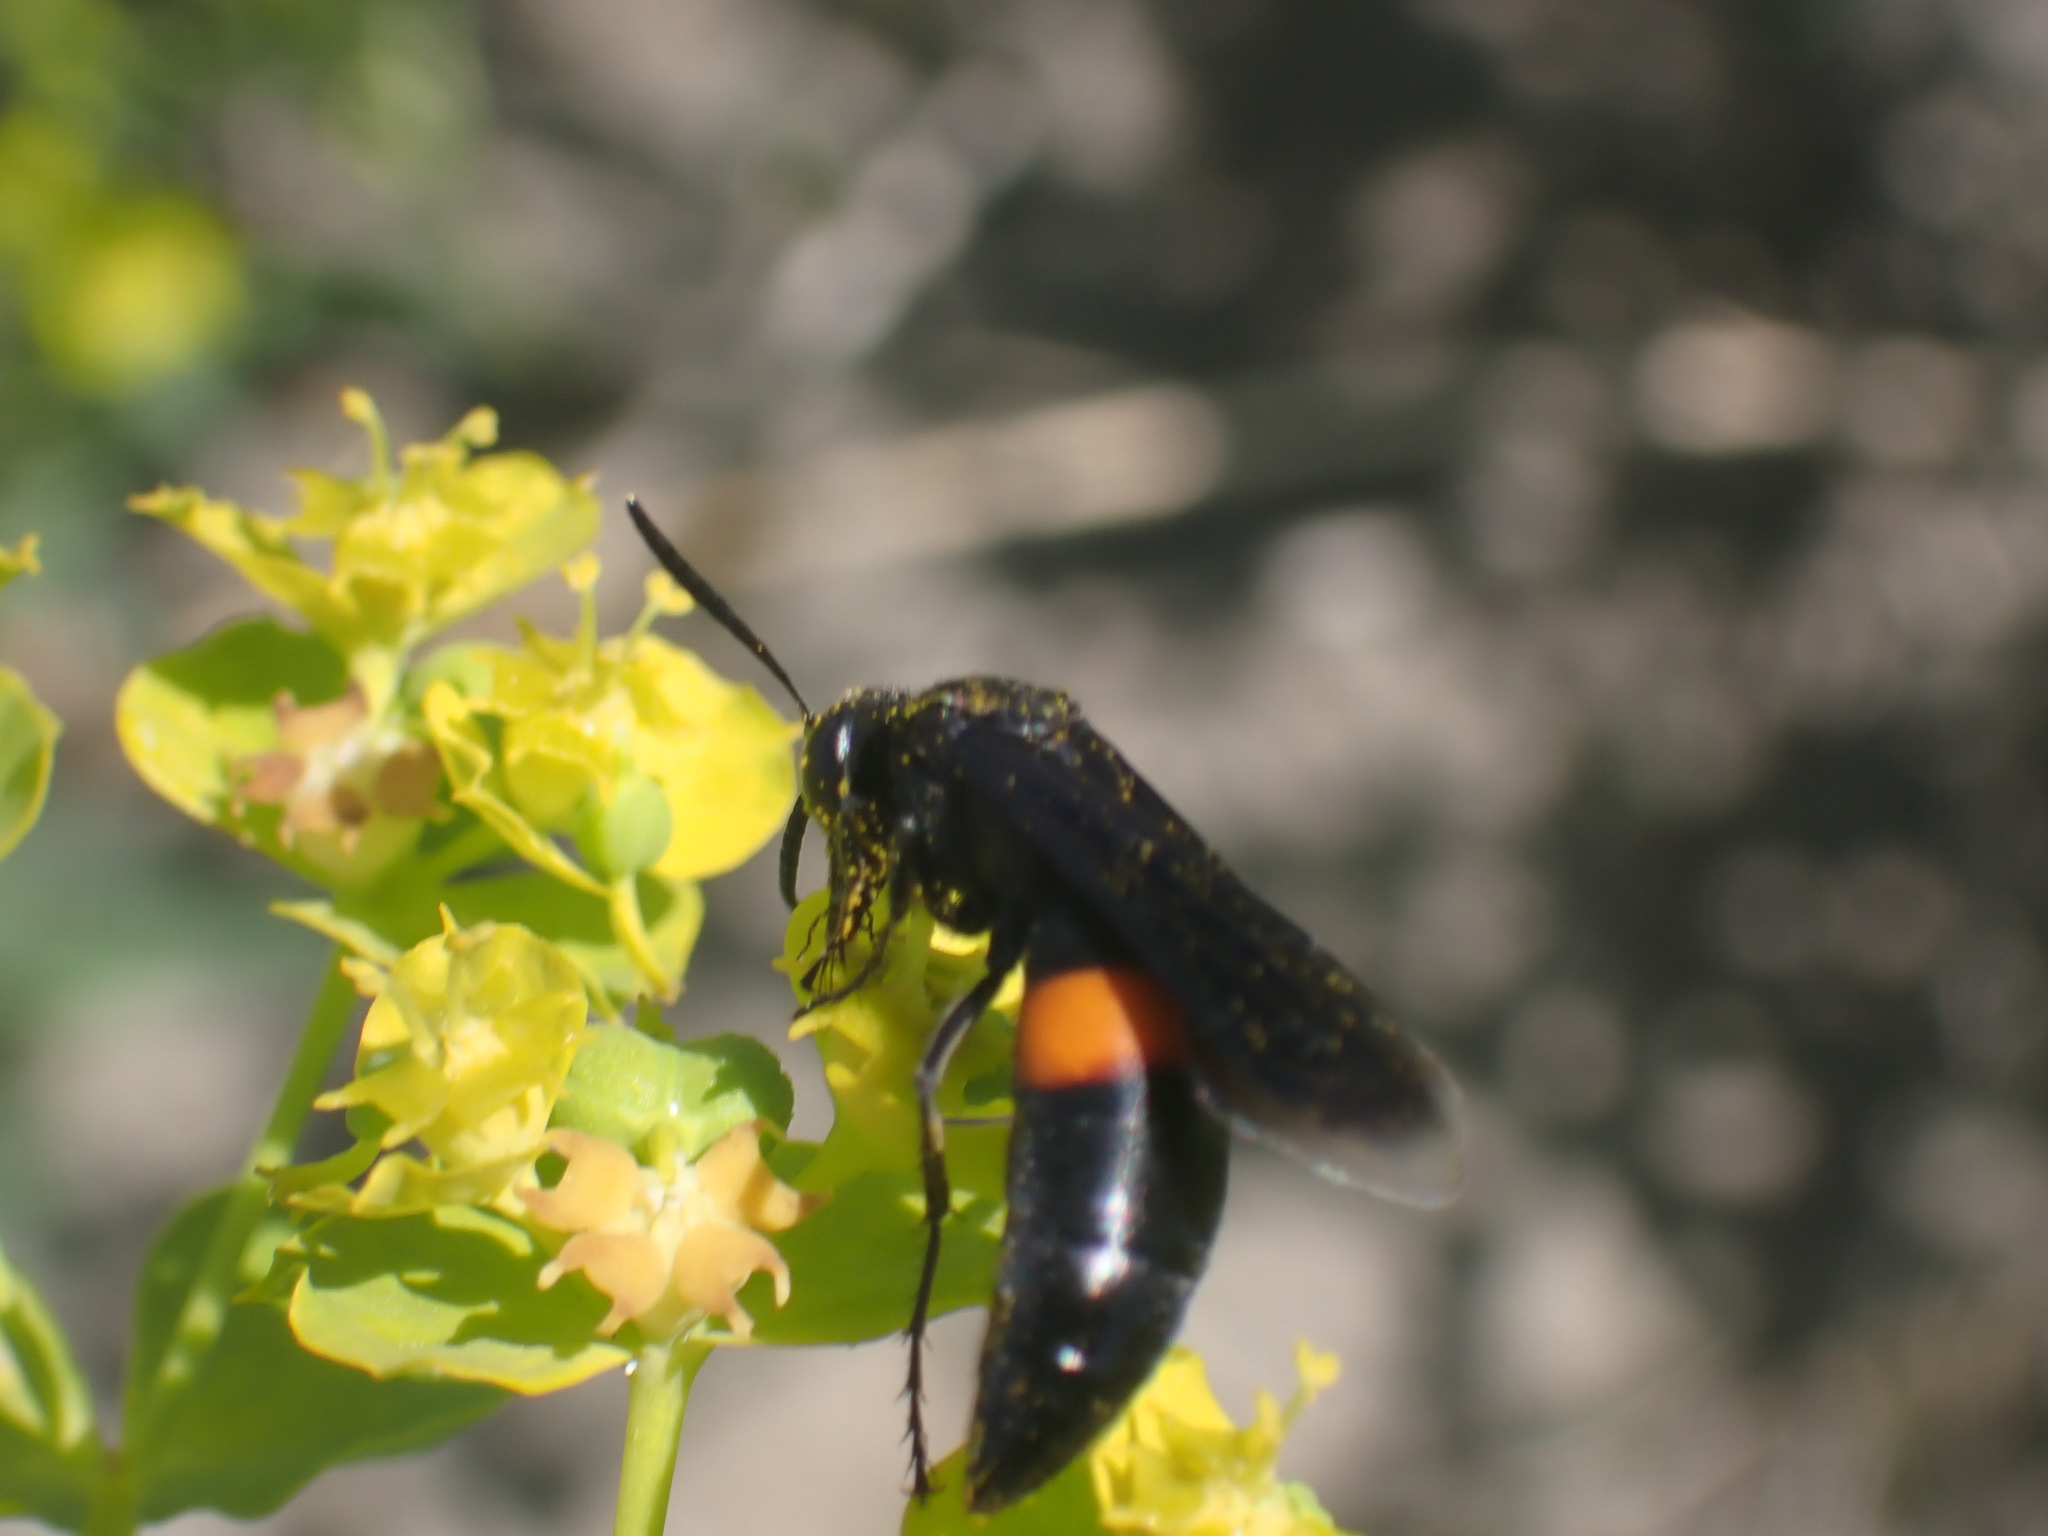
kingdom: Animalia
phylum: Arthropoda
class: Insecta
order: Hymenoptera
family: Crabronidae
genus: Stizoides
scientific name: Stizoides renicinctus
